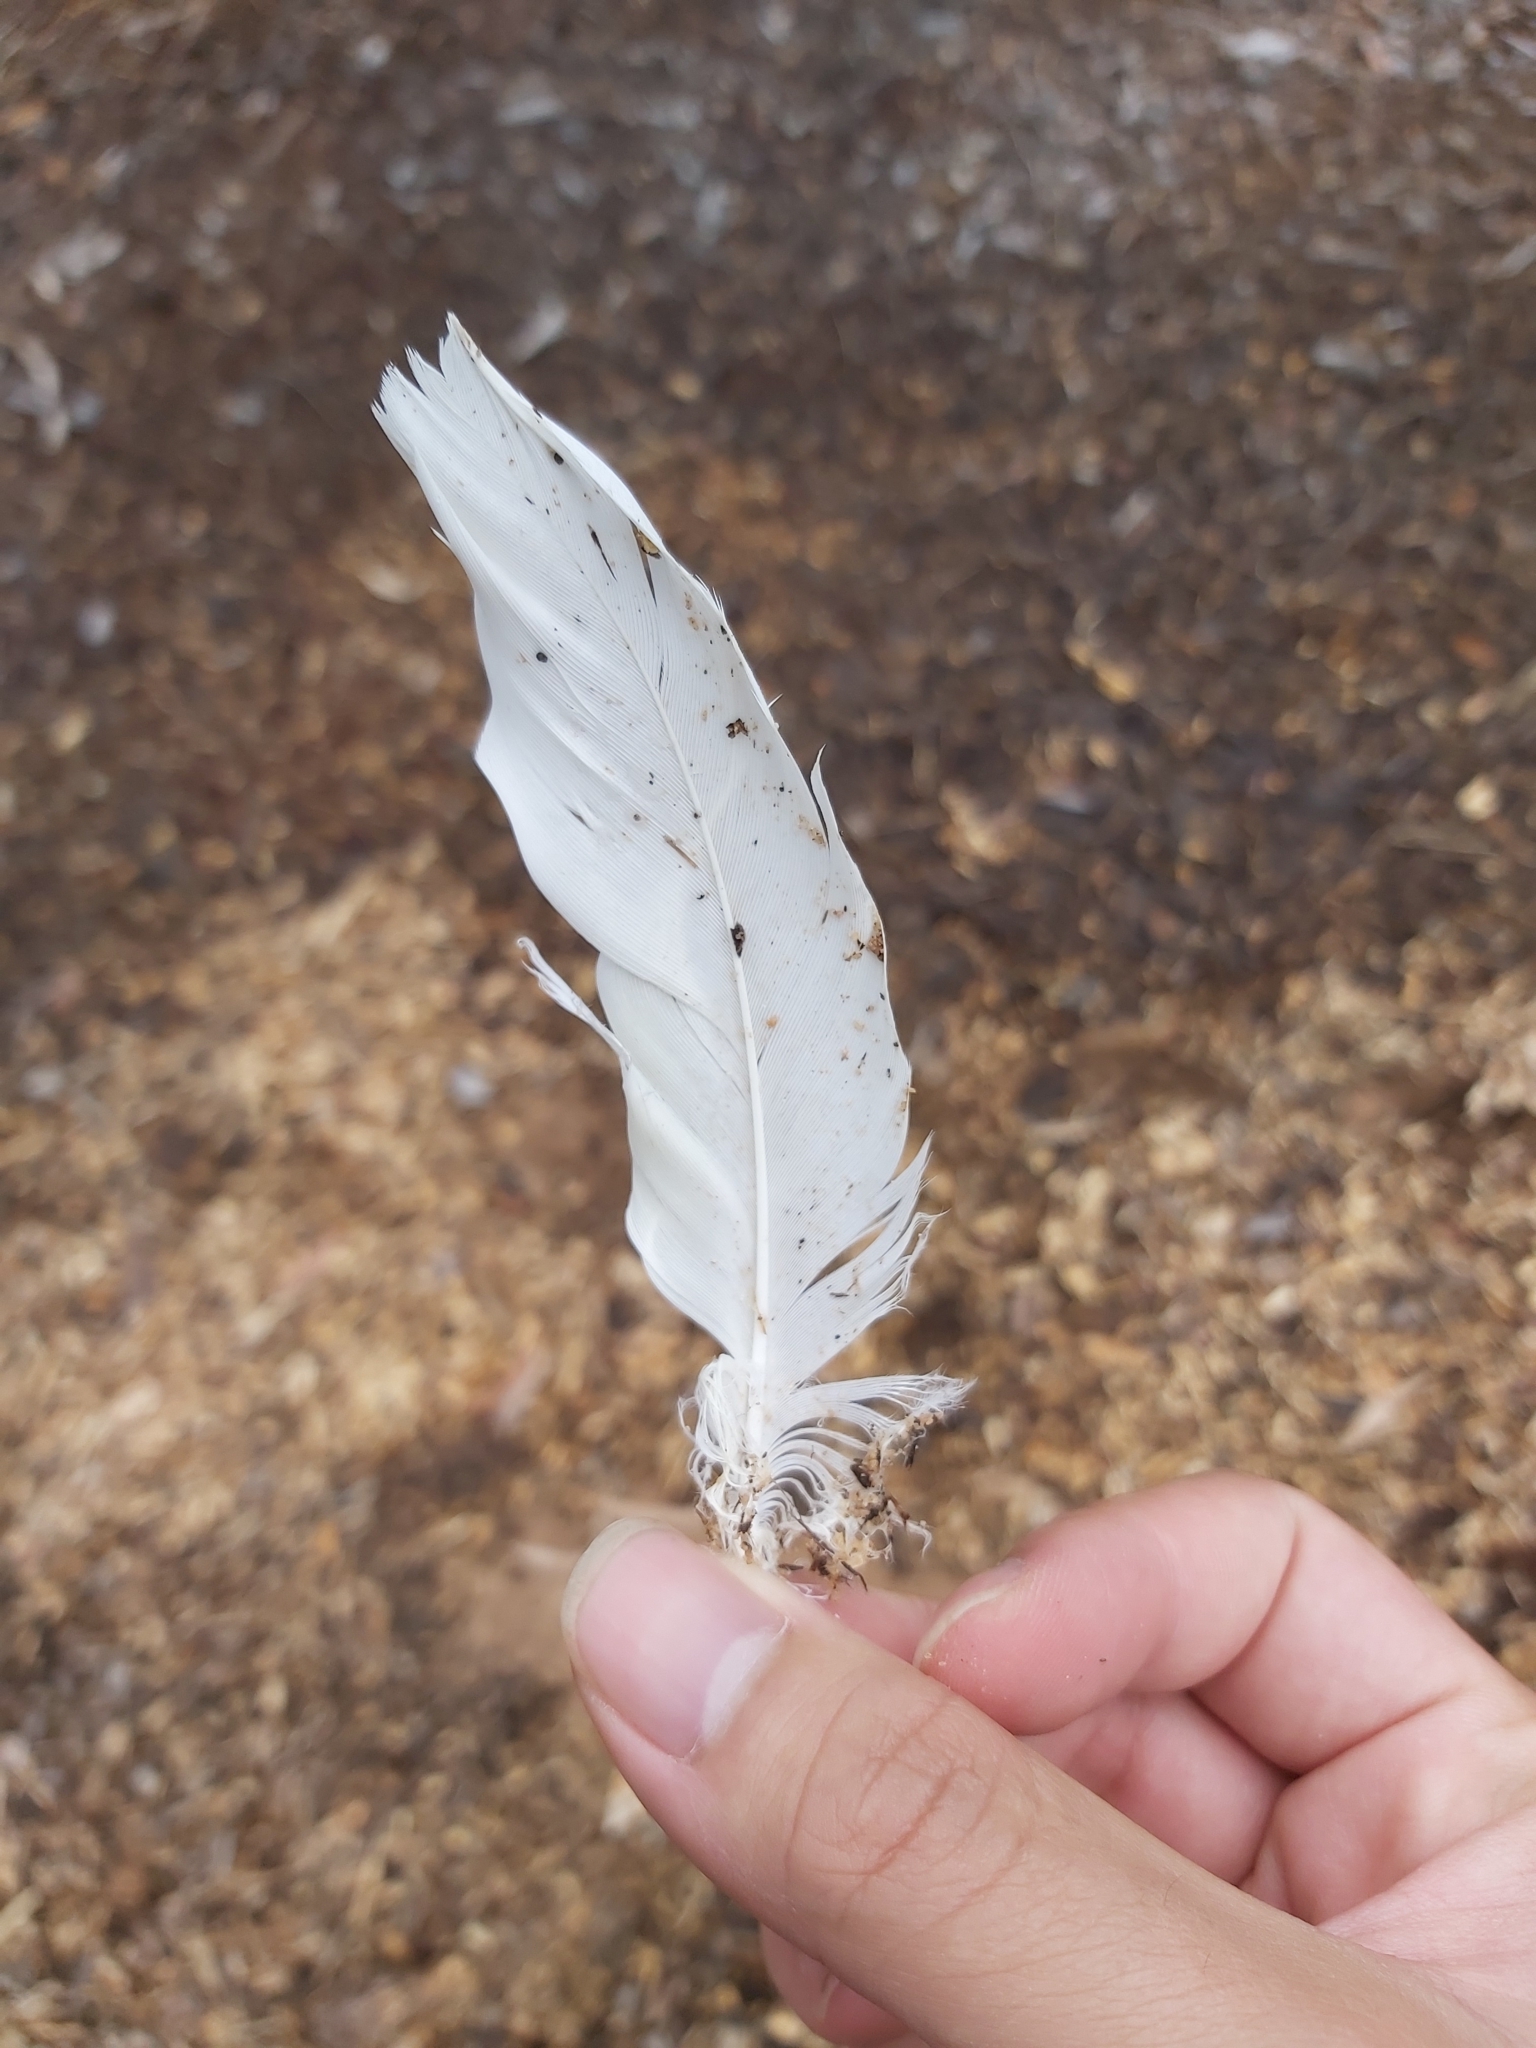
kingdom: Animalia
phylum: Chordata
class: Aves
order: Psittaciformes
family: Psittacidae
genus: Cacatua
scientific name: Cacatua galerita
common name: Sulphur-crested cockatoo
